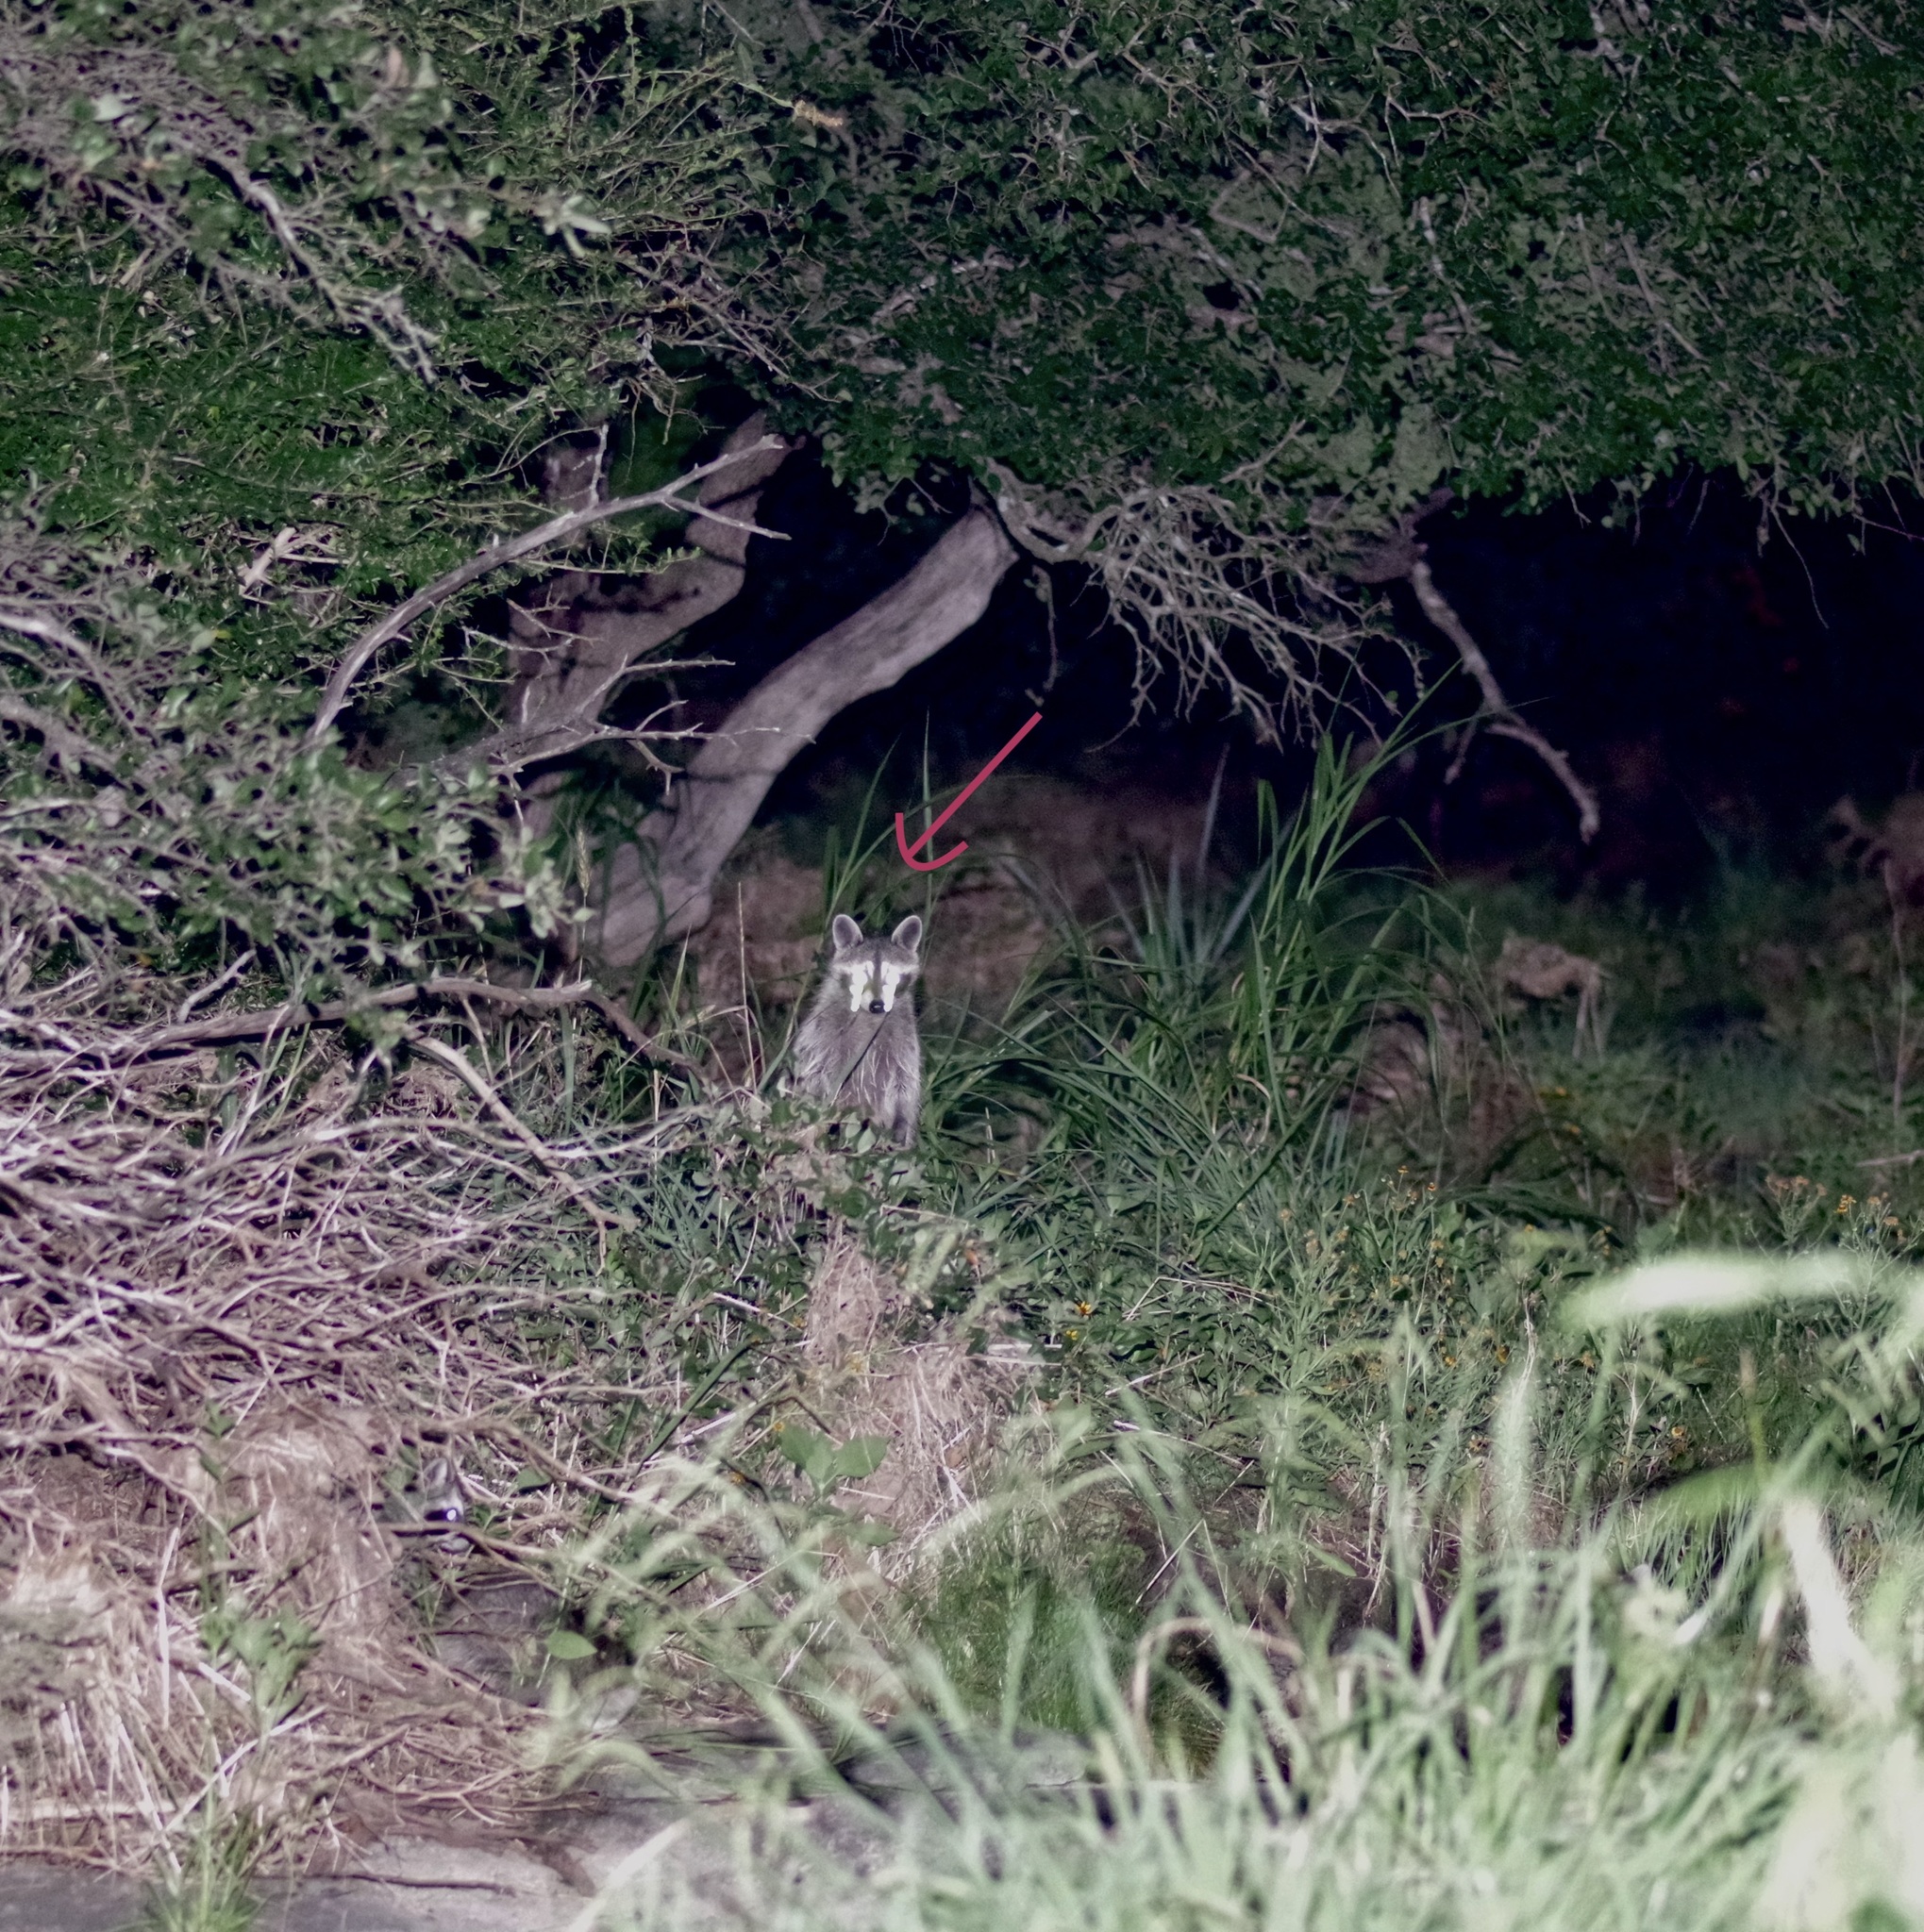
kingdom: Animalia
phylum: Chordata
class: Mammalia
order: Carnivora
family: Procyonidae
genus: Procyon
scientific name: Procyon lotor
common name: Raccoon
